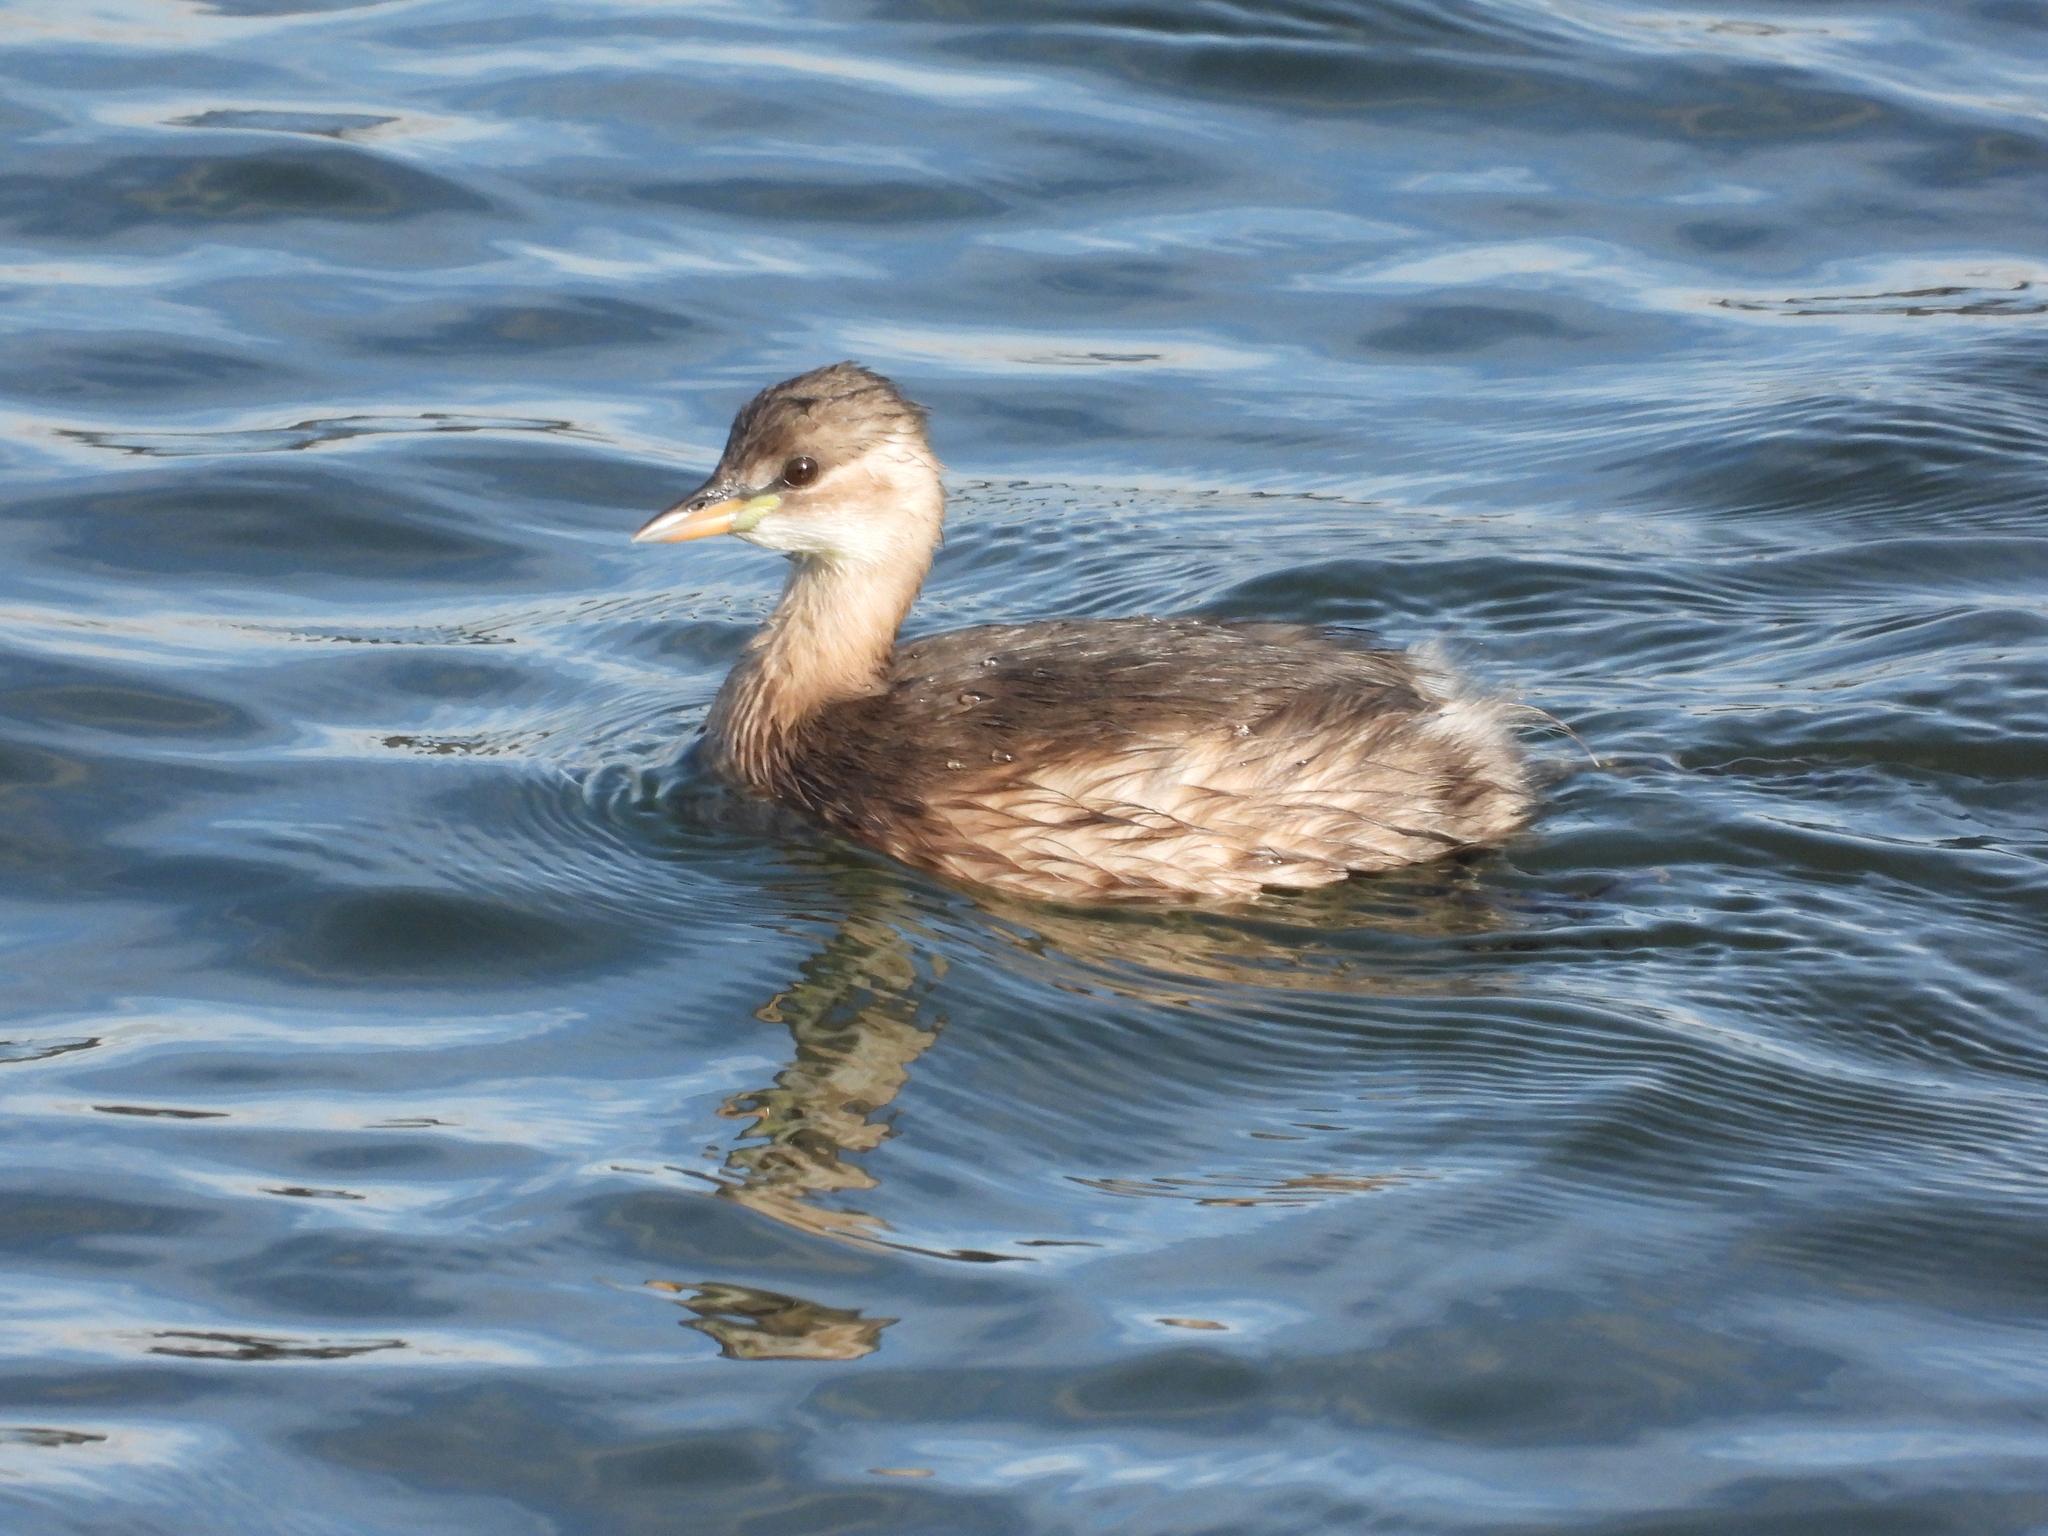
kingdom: Animalia
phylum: Chordata
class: Aves
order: Podicipediformes
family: Podicipedidae
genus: Tachybaptus
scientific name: Tachybaptus ruficollis
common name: Little grebe
